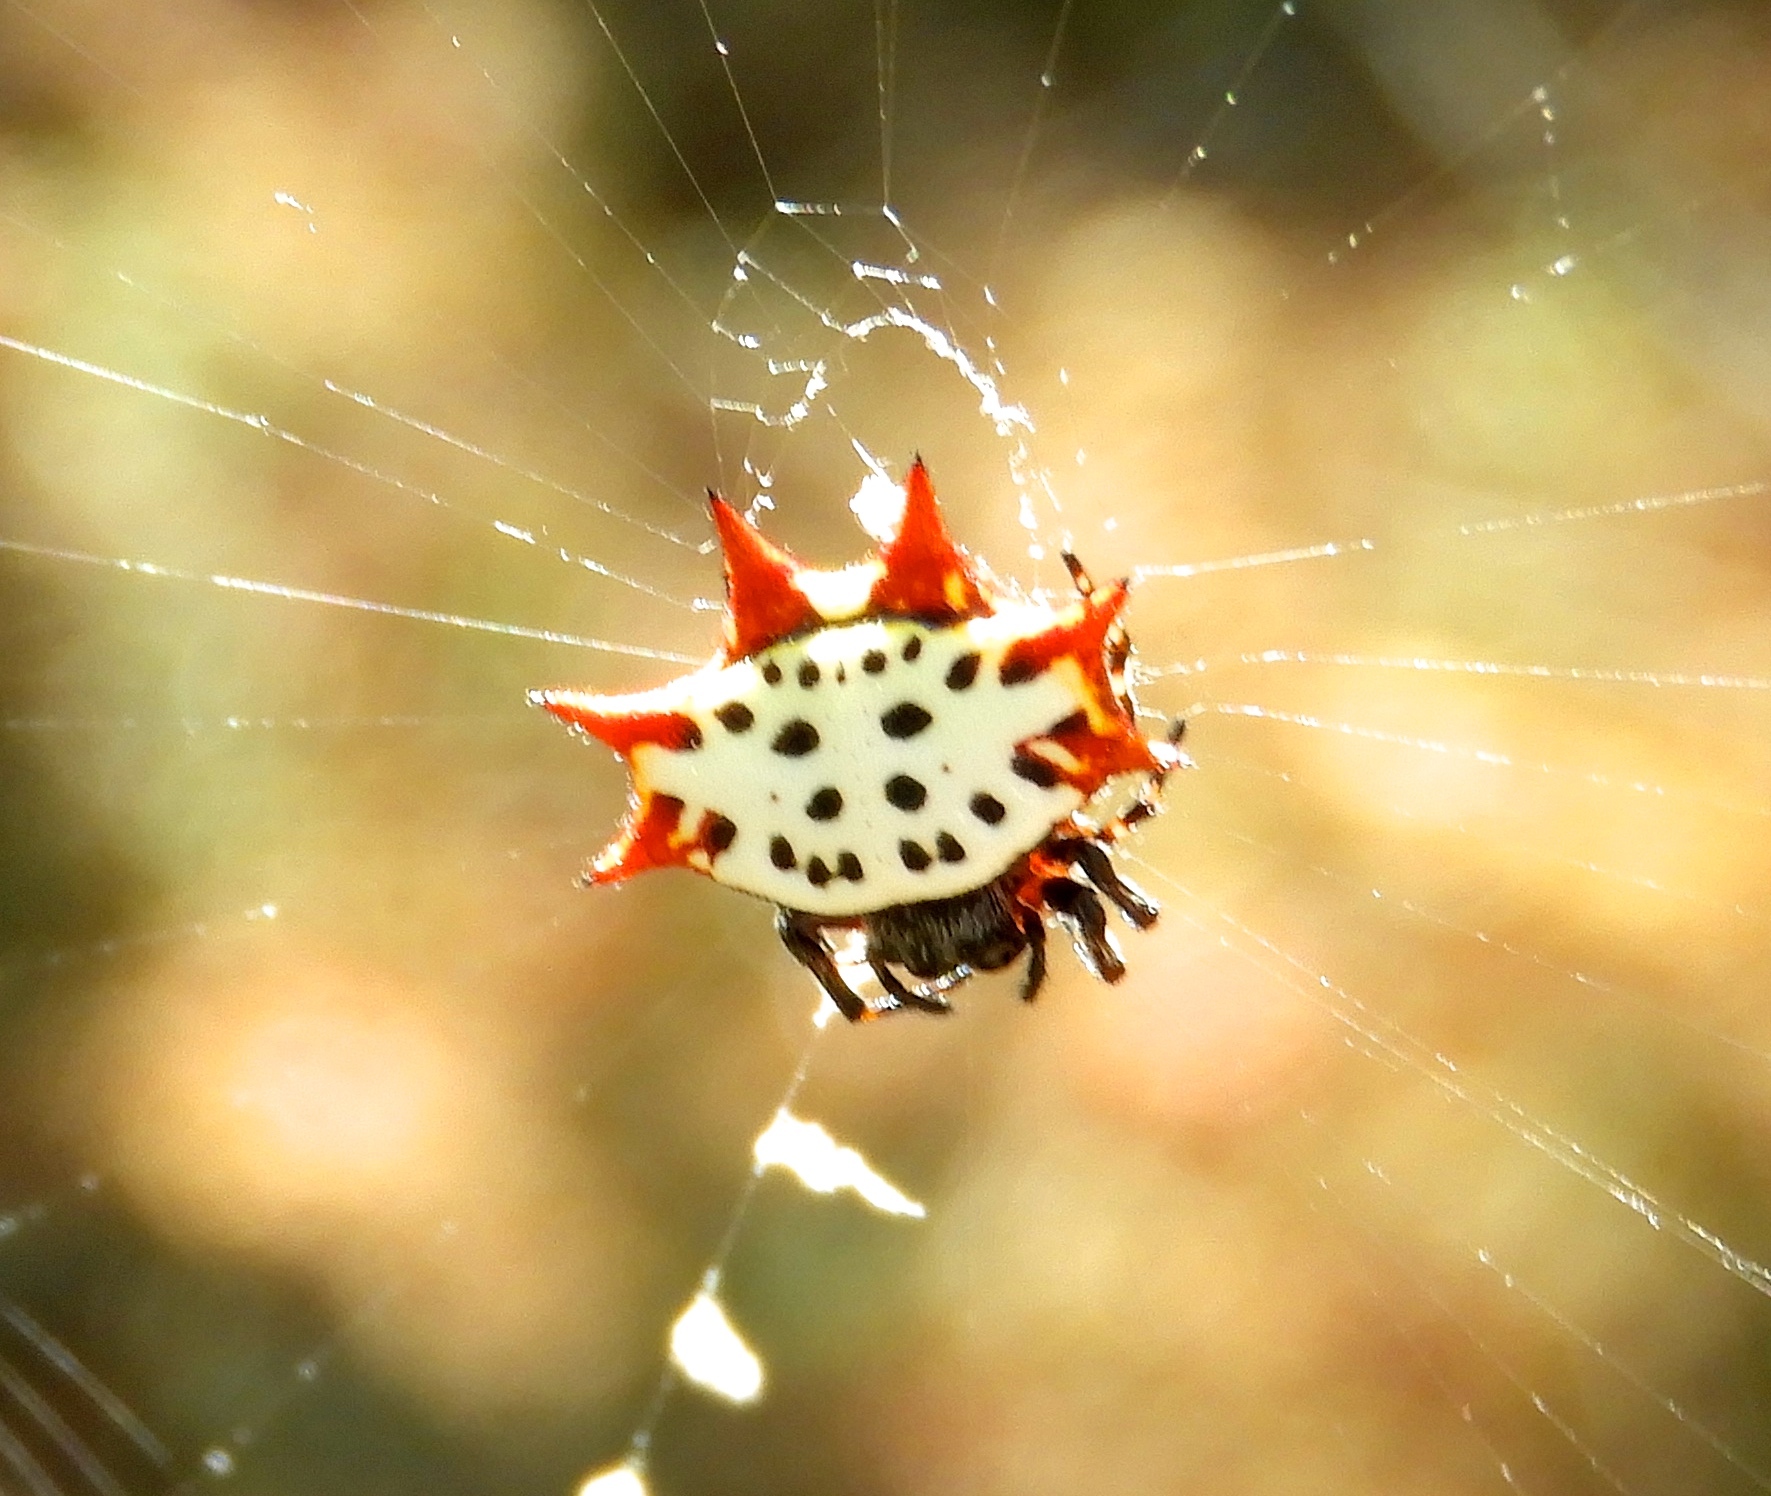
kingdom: Animalia
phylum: Arthropoda
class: Arachnida
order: Araneae
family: Araneidae
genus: Gasteracantha
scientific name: Gasteracantha cancriformis
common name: Orb weavers
